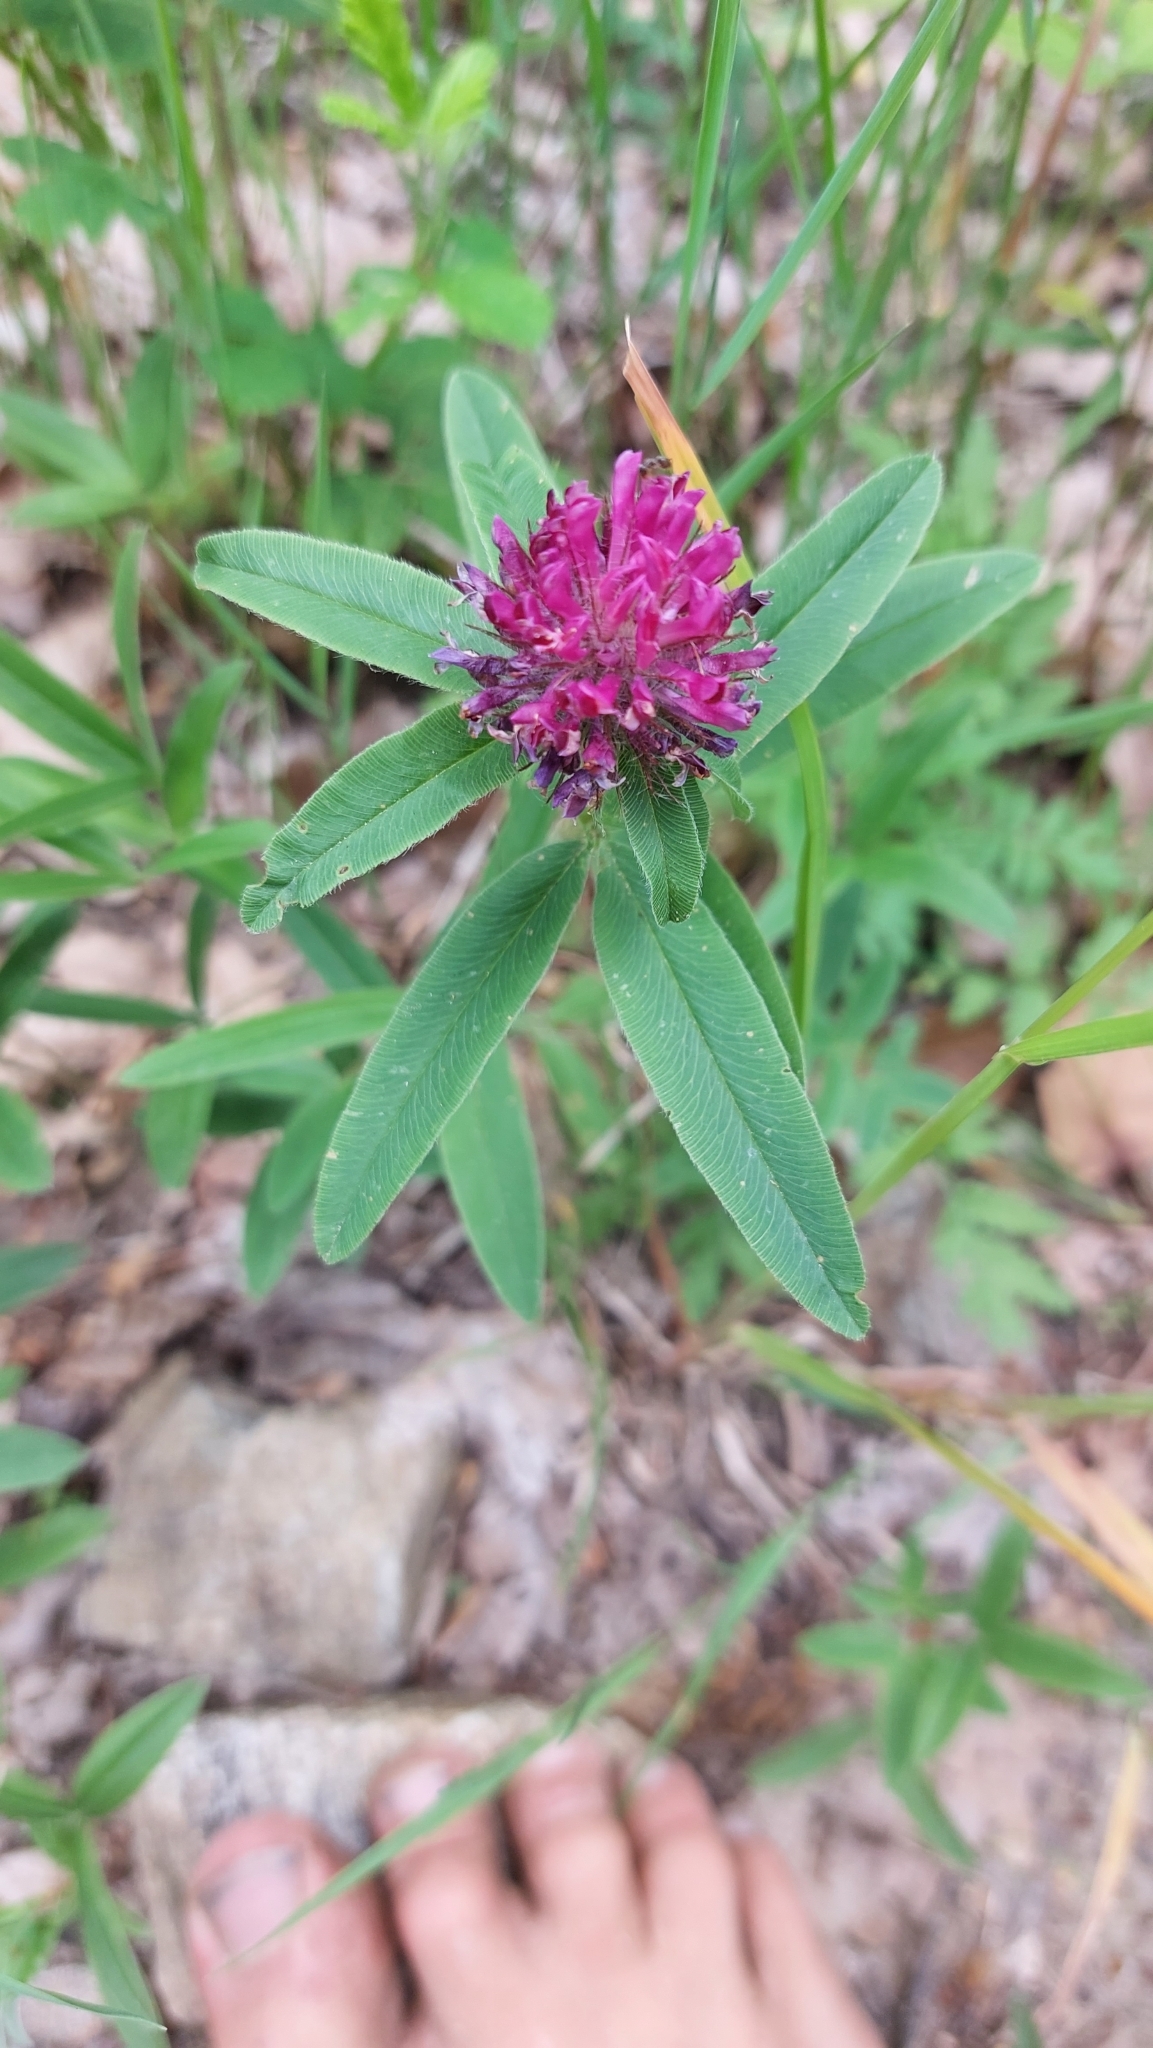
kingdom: Plantae
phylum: Tracheophyta
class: Magnoliopsida
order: Fabales
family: Fabaceae
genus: Trifolium
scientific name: Trifolium alpestre
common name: Owl-head clover
